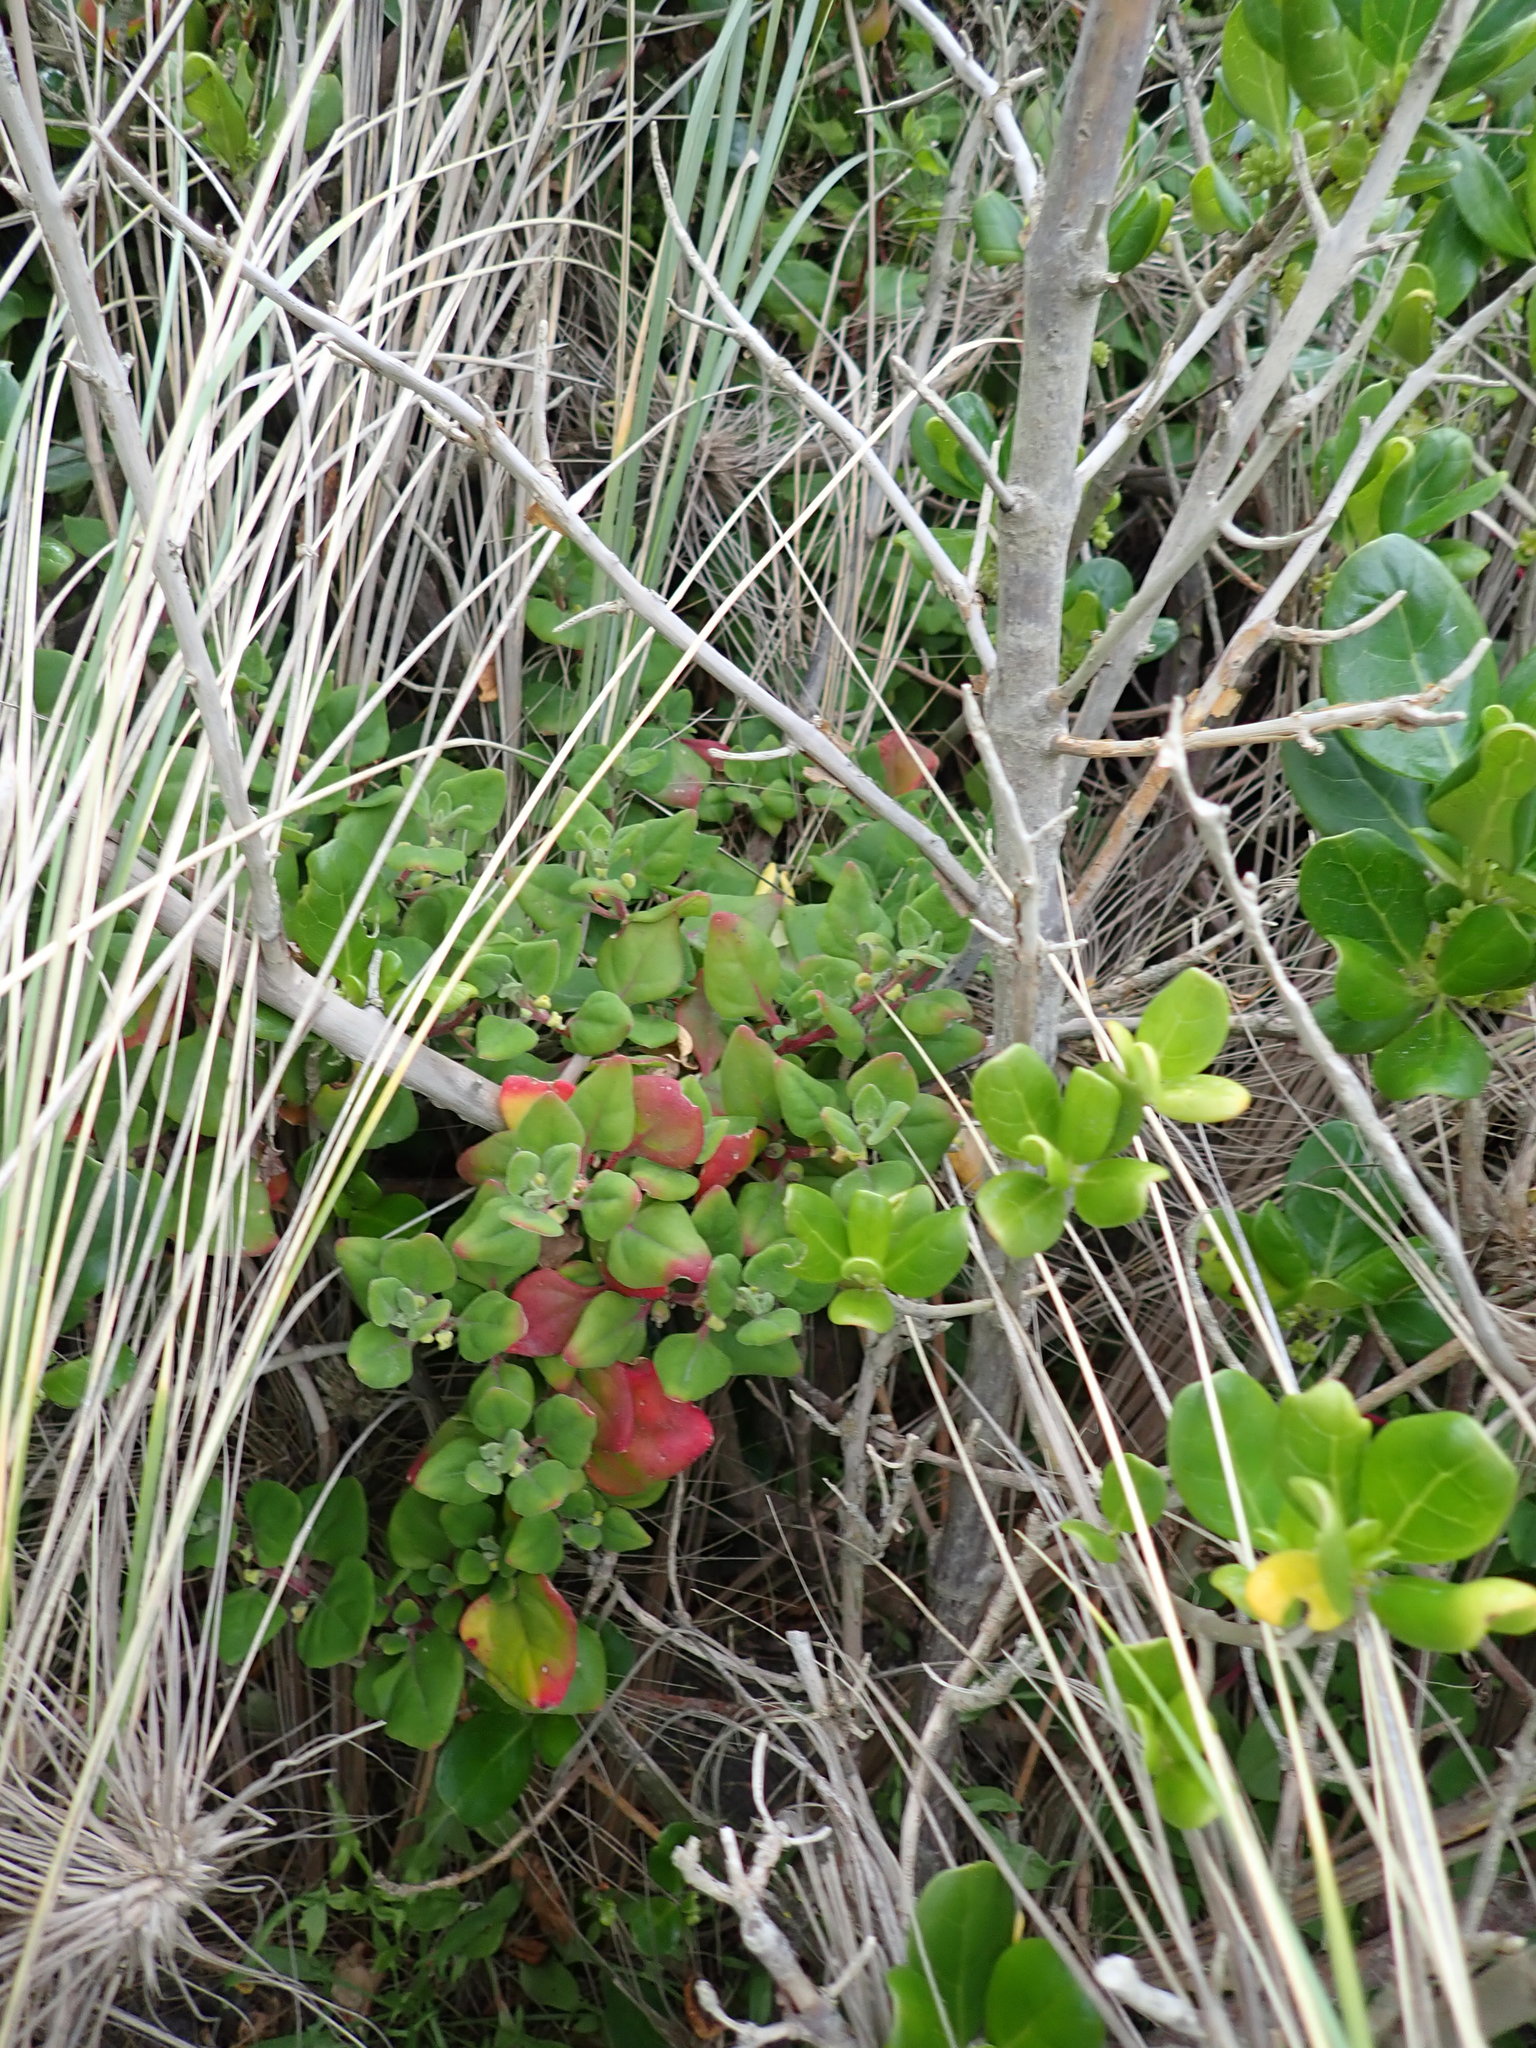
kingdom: Plantae
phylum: Tracheophyta
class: Magnoliopsida
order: Caryophyllales
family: Aizoaceae
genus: Tetragonia
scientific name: Tetragonia implexicoma
